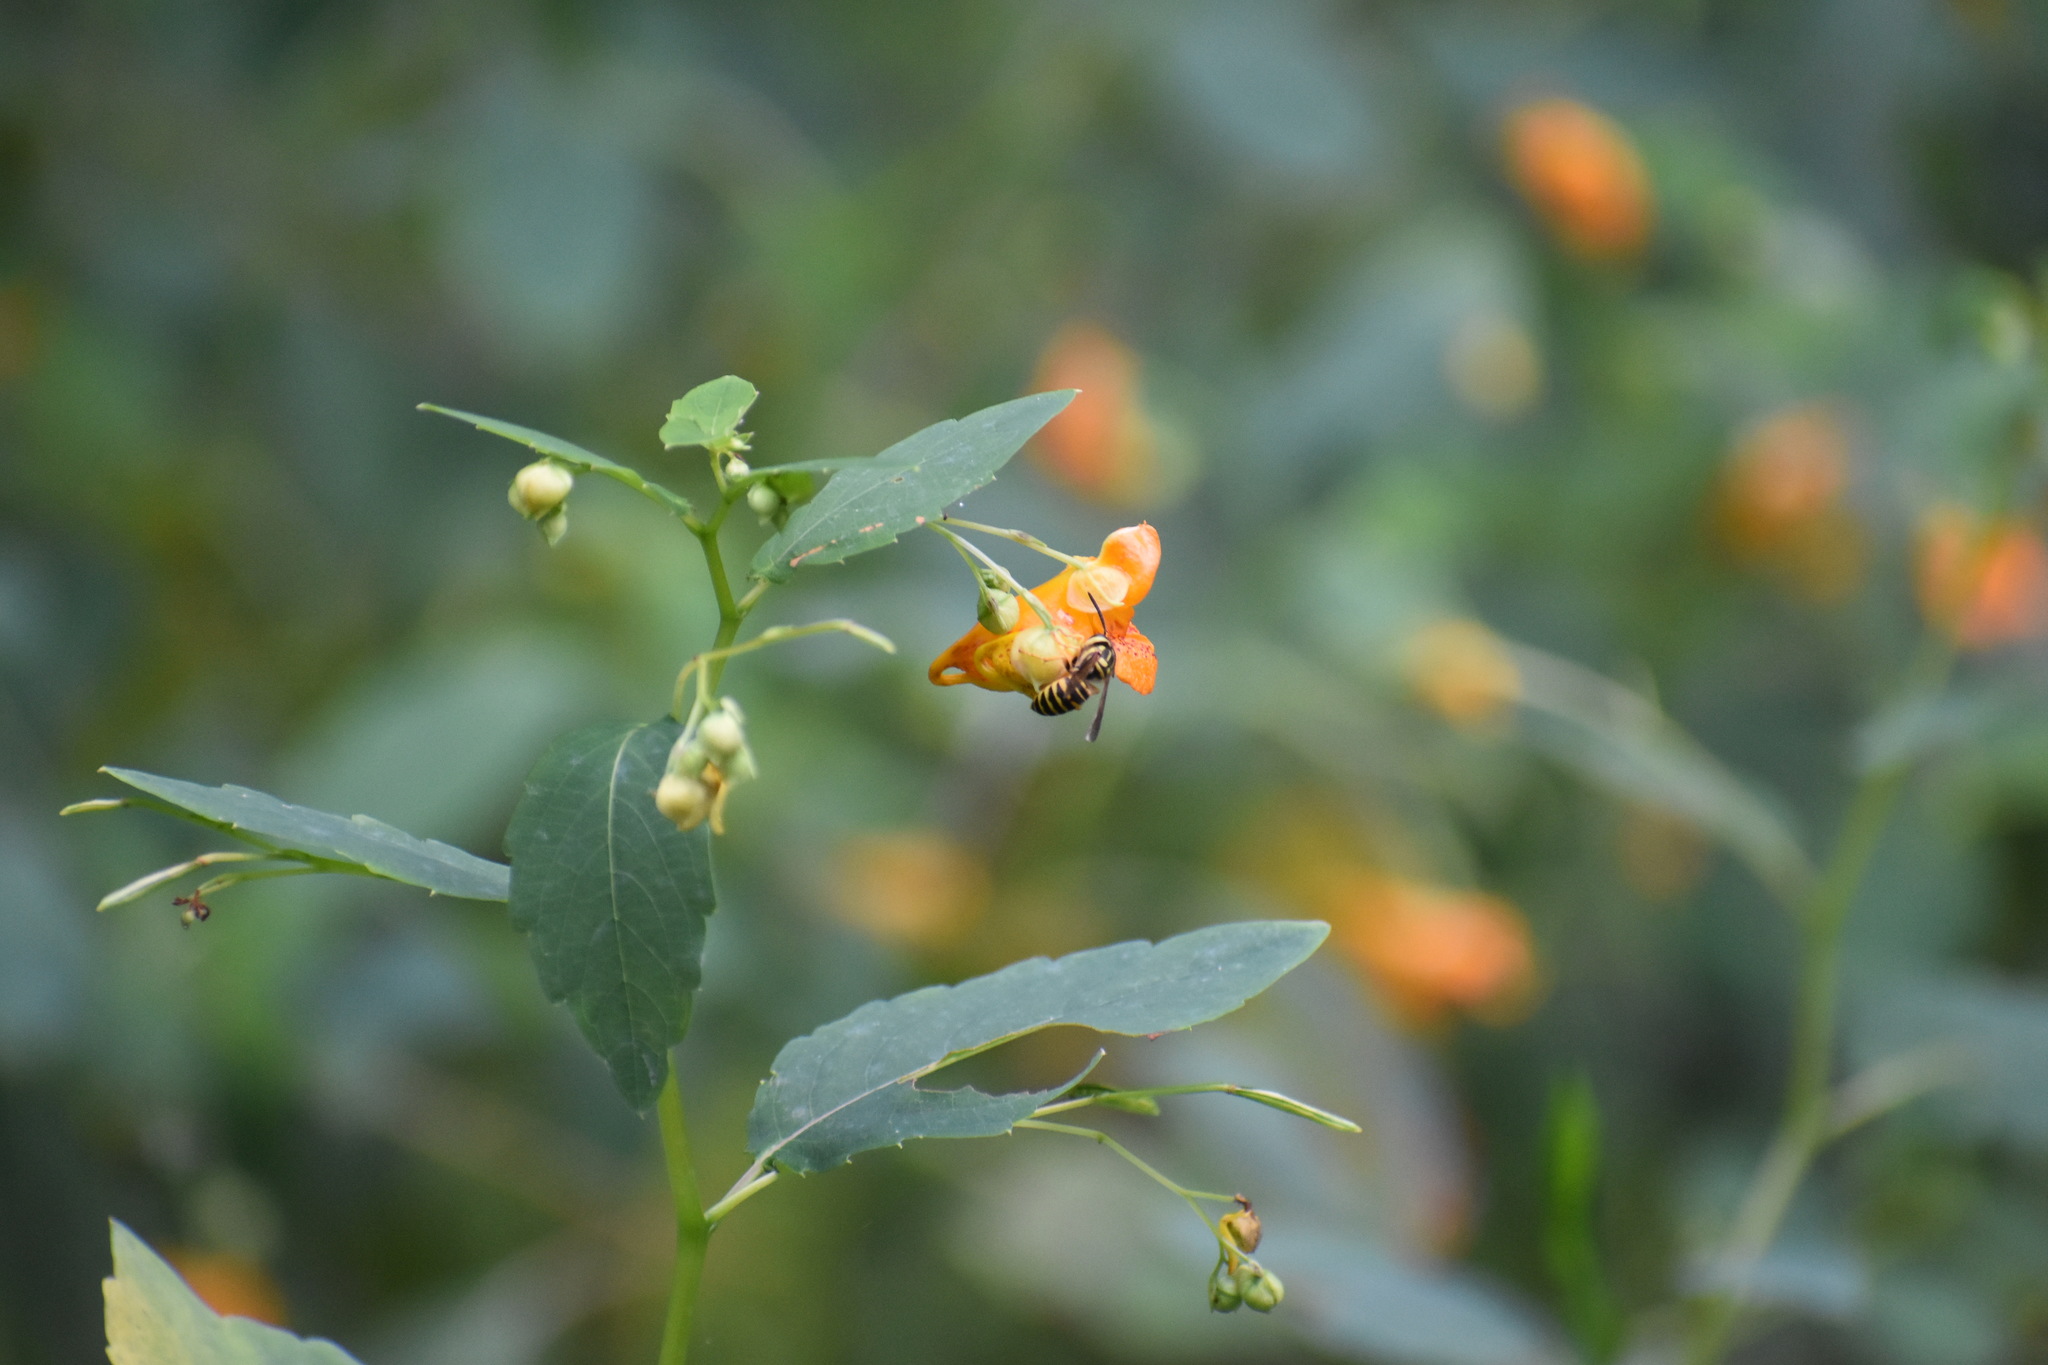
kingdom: Animalia
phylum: Arthropoda
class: Insecta
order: Hymenoptera
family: Vespidae
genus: Vespula
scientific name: Vespula squamosa
